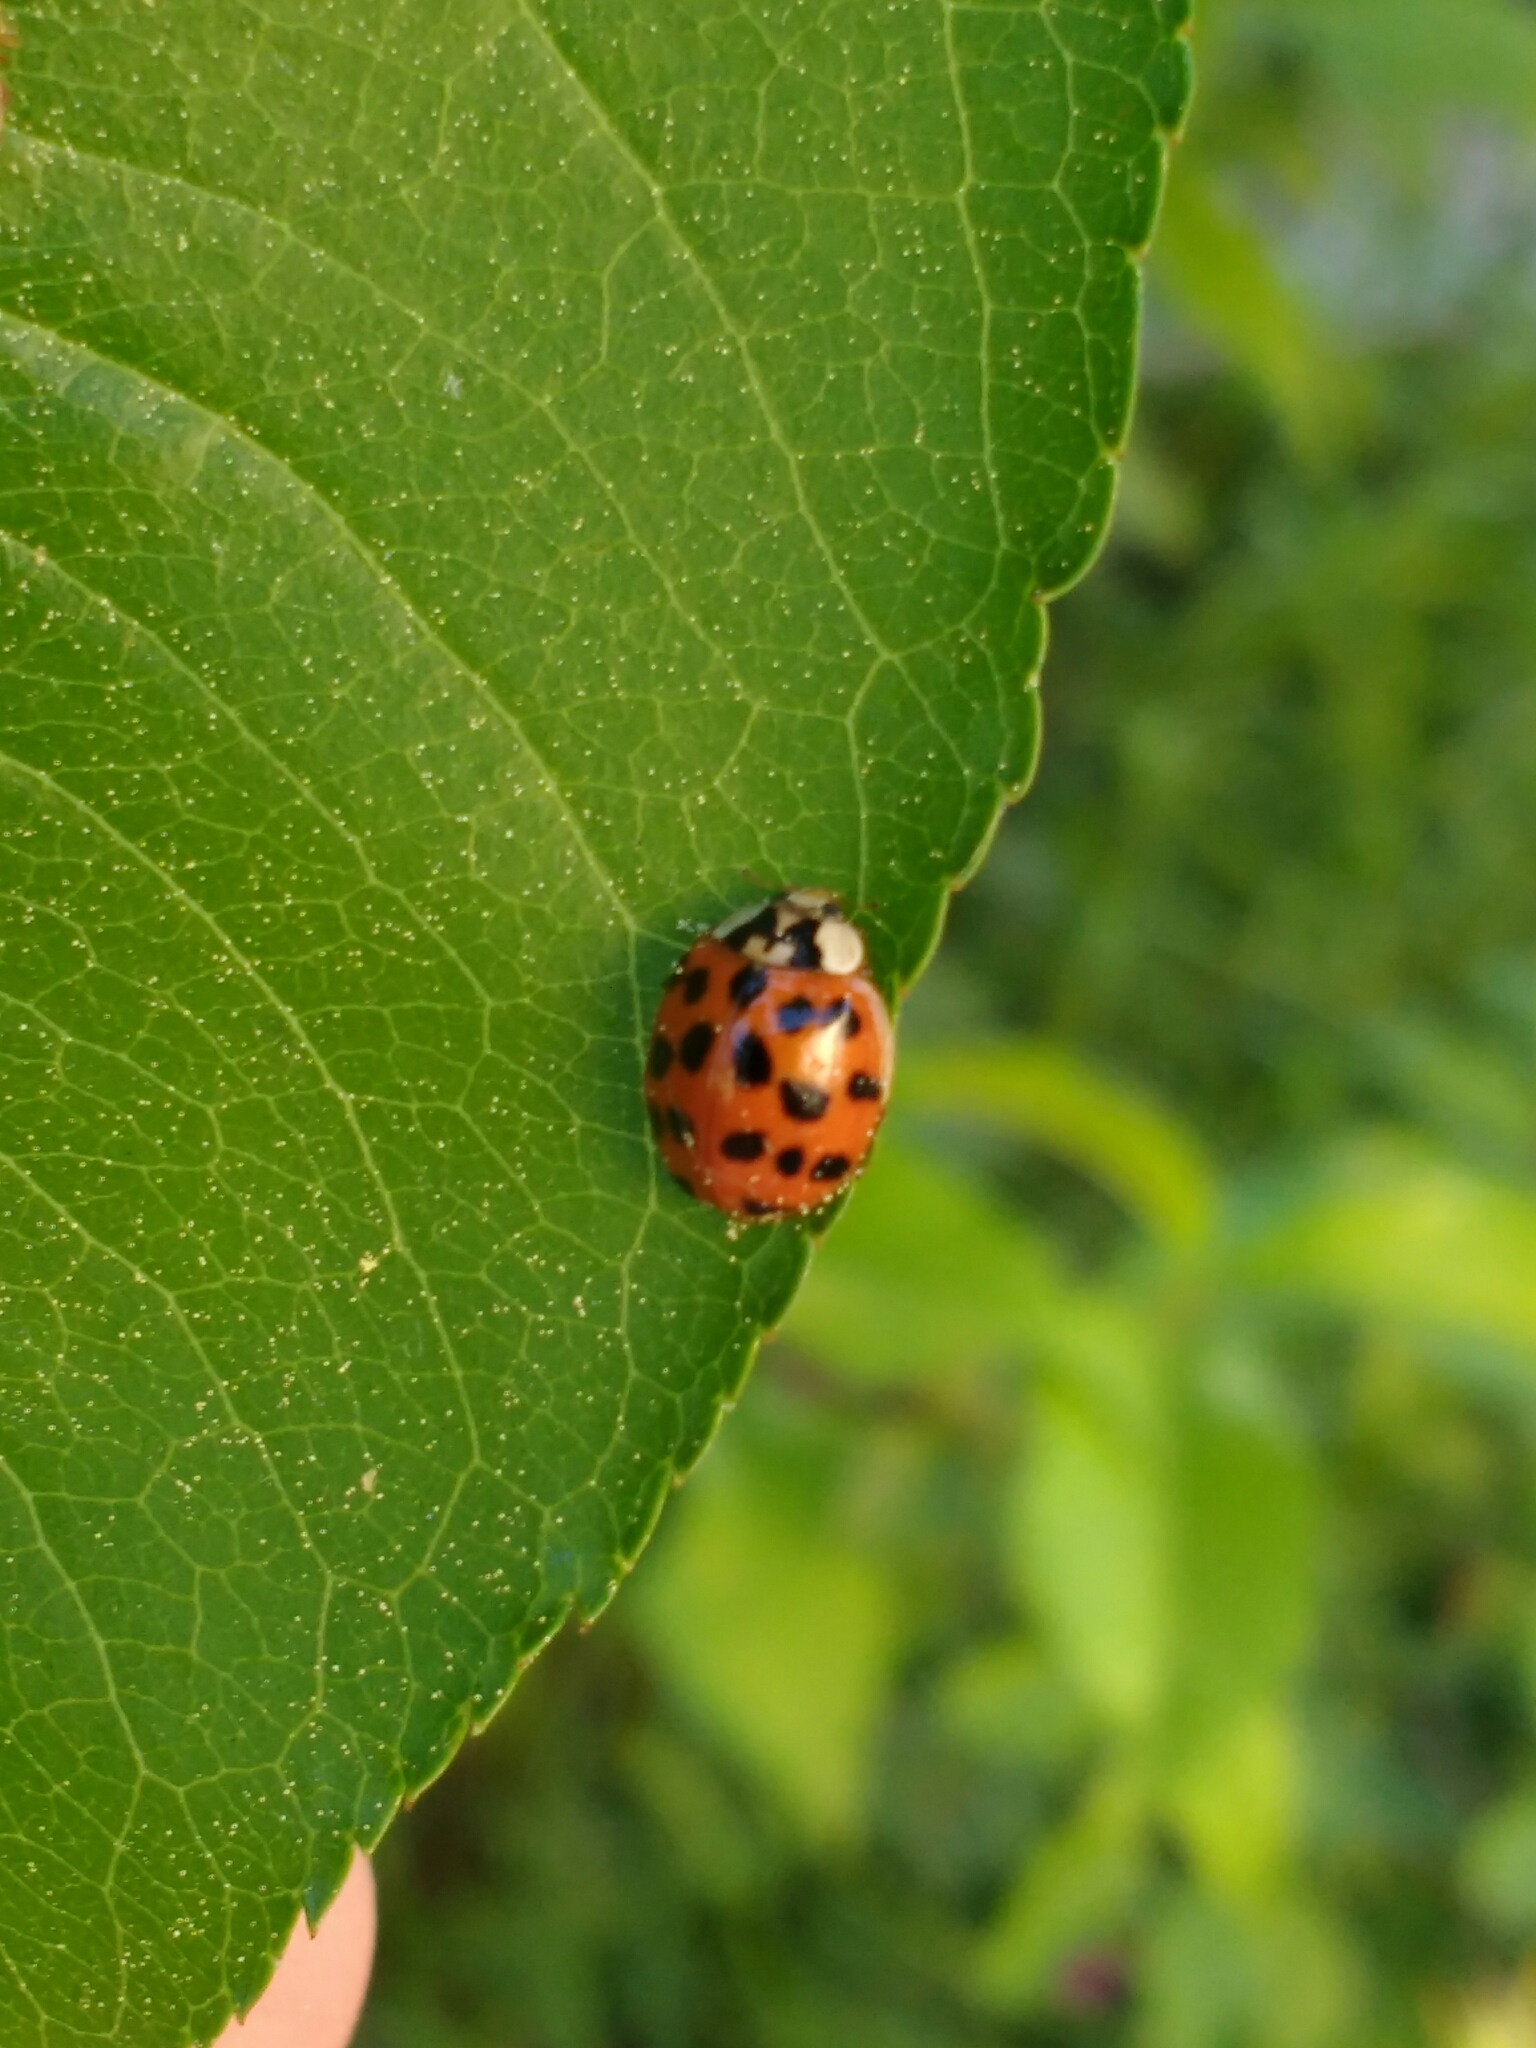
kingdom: Animalia
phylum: Arthropoda
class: Insecta
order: Coleoptera
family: Coccinellidae
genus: Harmonia
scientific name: Harmonia axyridis
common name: Harlequin ladybird
